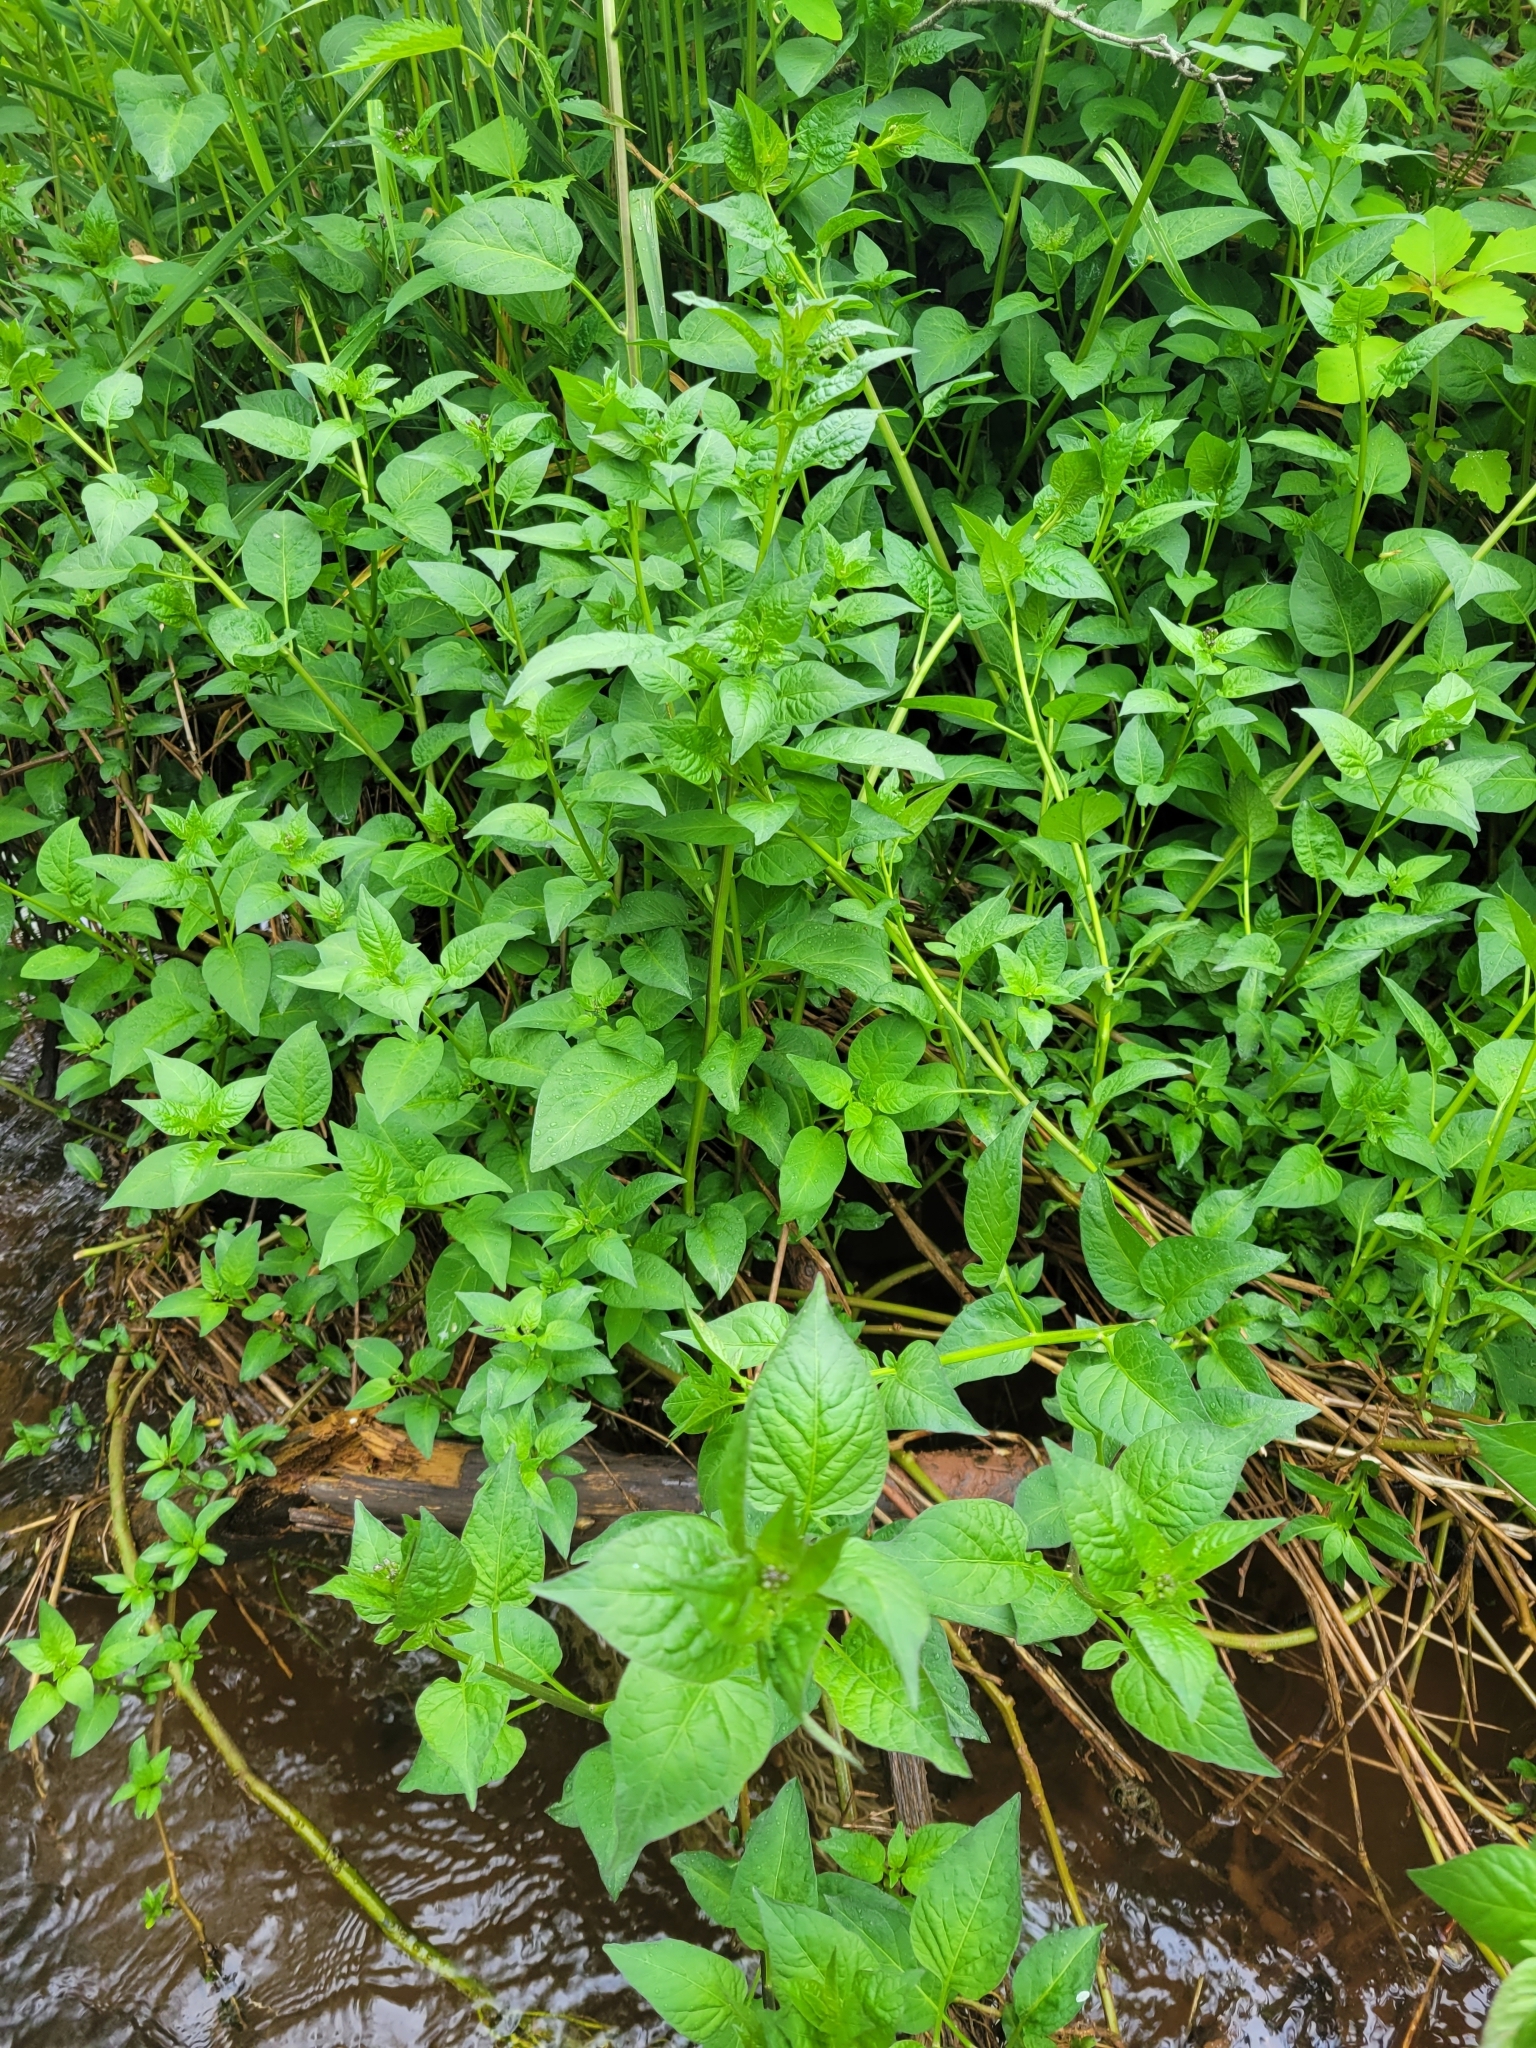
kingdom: Plantae
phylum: Tracheophyta
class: Magnoliopsida
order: Solanales
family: Solanaceae
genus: Solanum
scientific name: Solanum dulcamara
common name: Climbing nightshade
